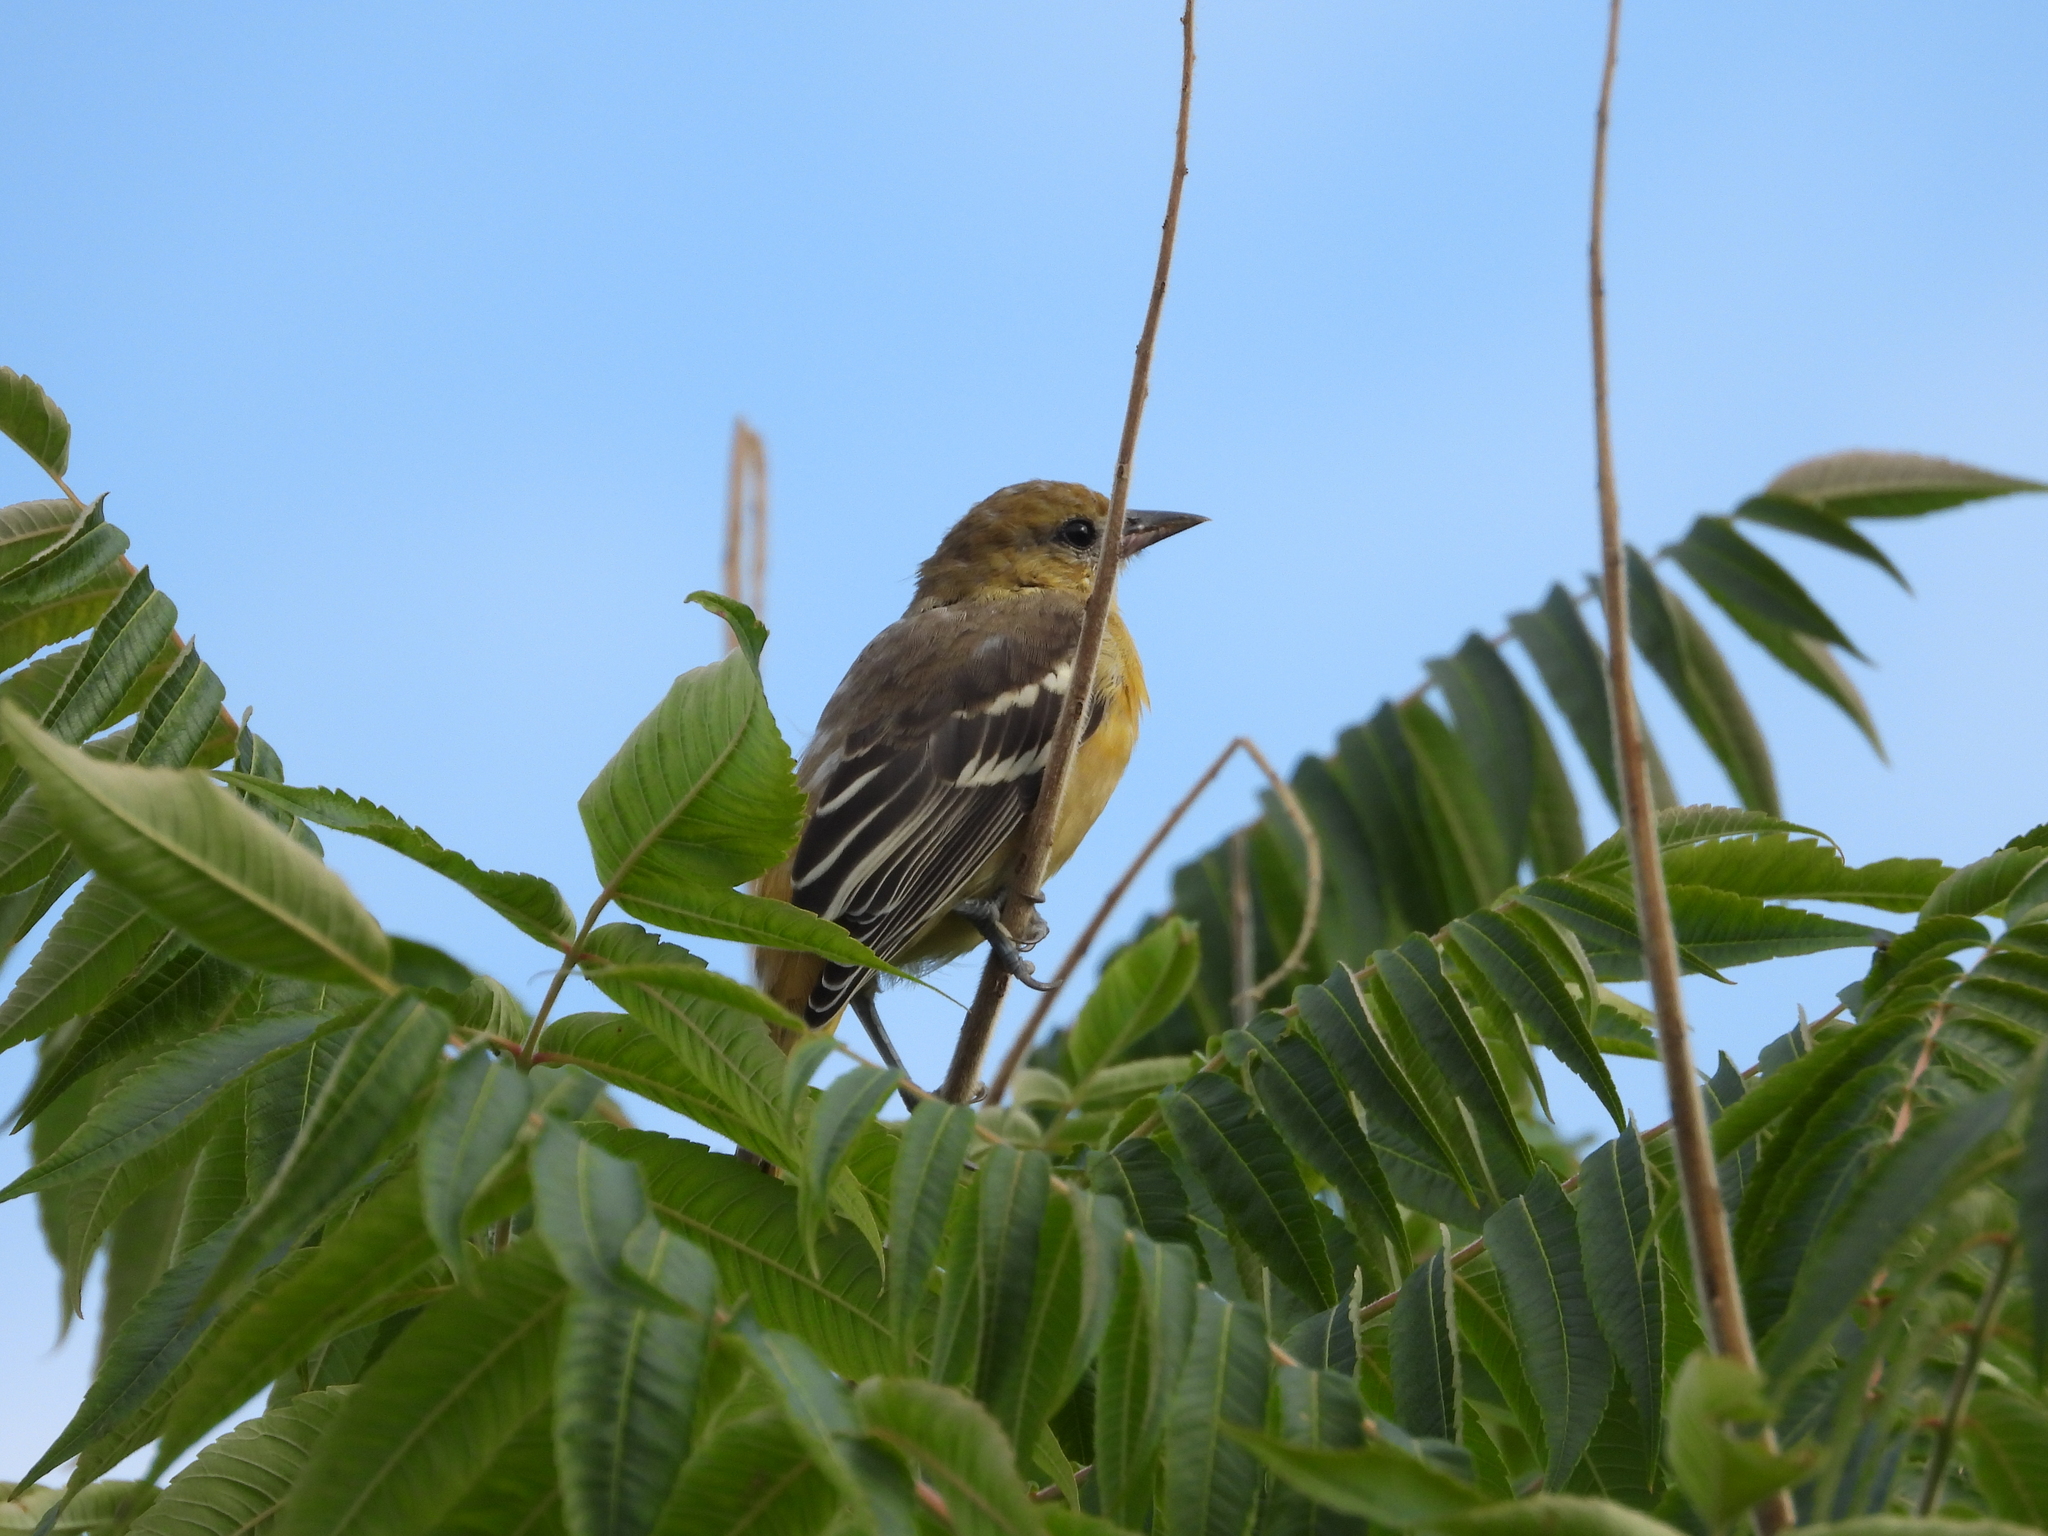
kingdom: Animalia
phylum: Chordata
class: Aves
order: Passeriformes
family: Icteridae
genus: Icterus
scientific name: Icterus galbula
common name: Baltimore oriole
